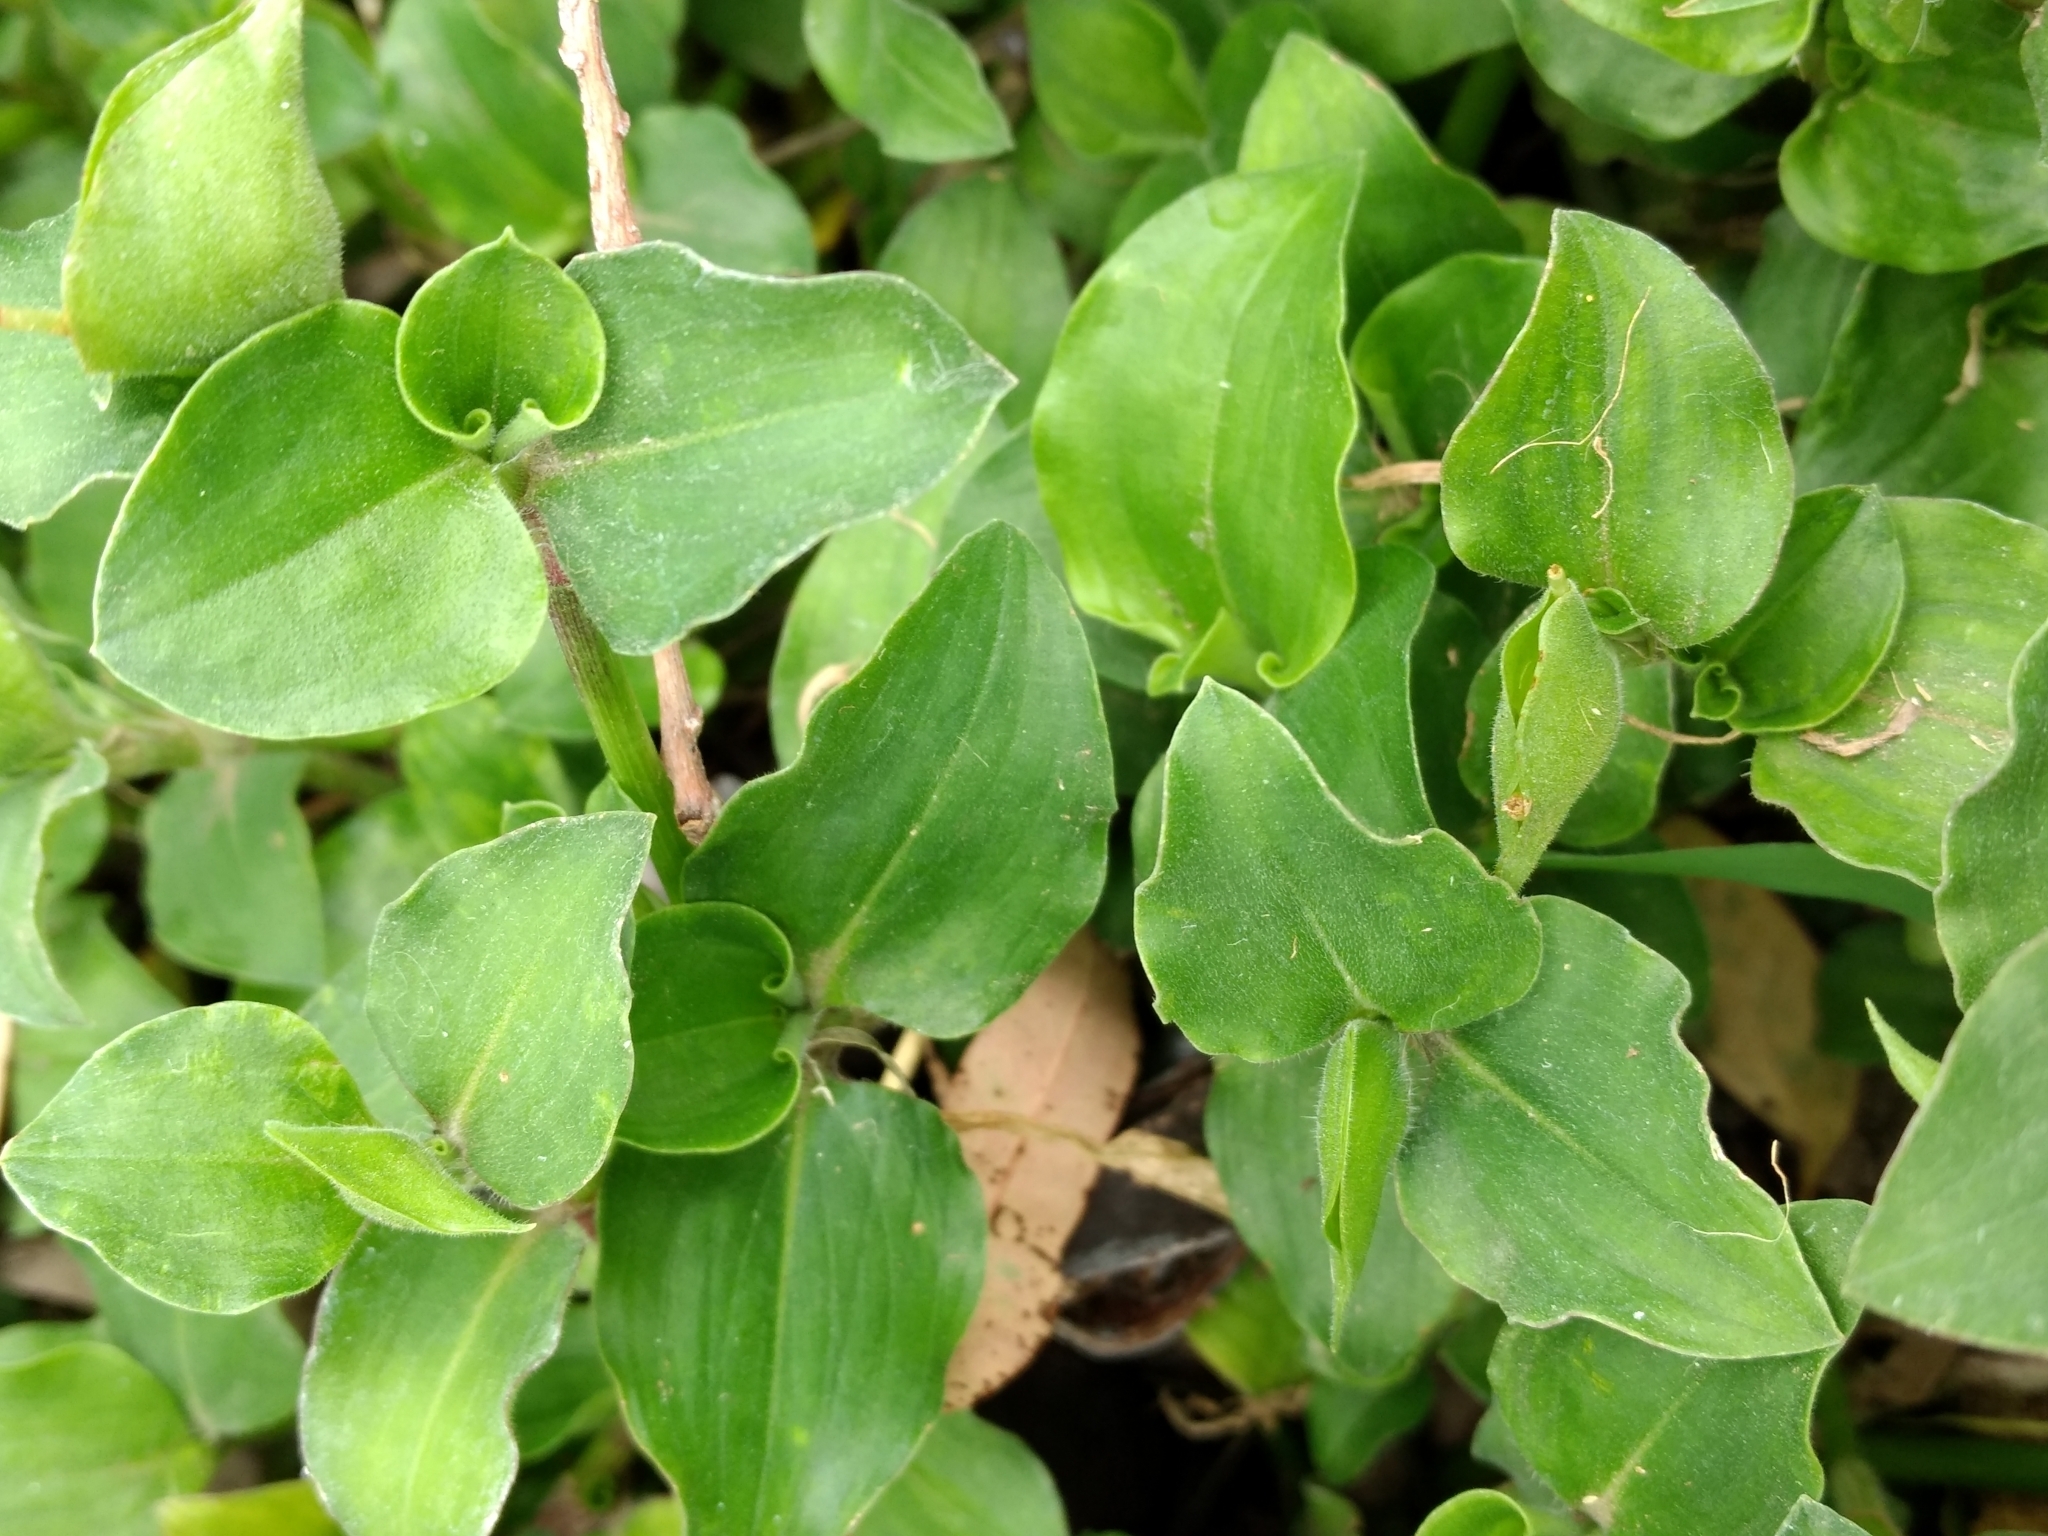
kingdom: Plantae
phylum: Tracheophyta
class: Liliopsida
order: Commelinales
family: Commelinaceae
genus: Commelina
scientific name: Commelina benghalensis
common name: Jio
